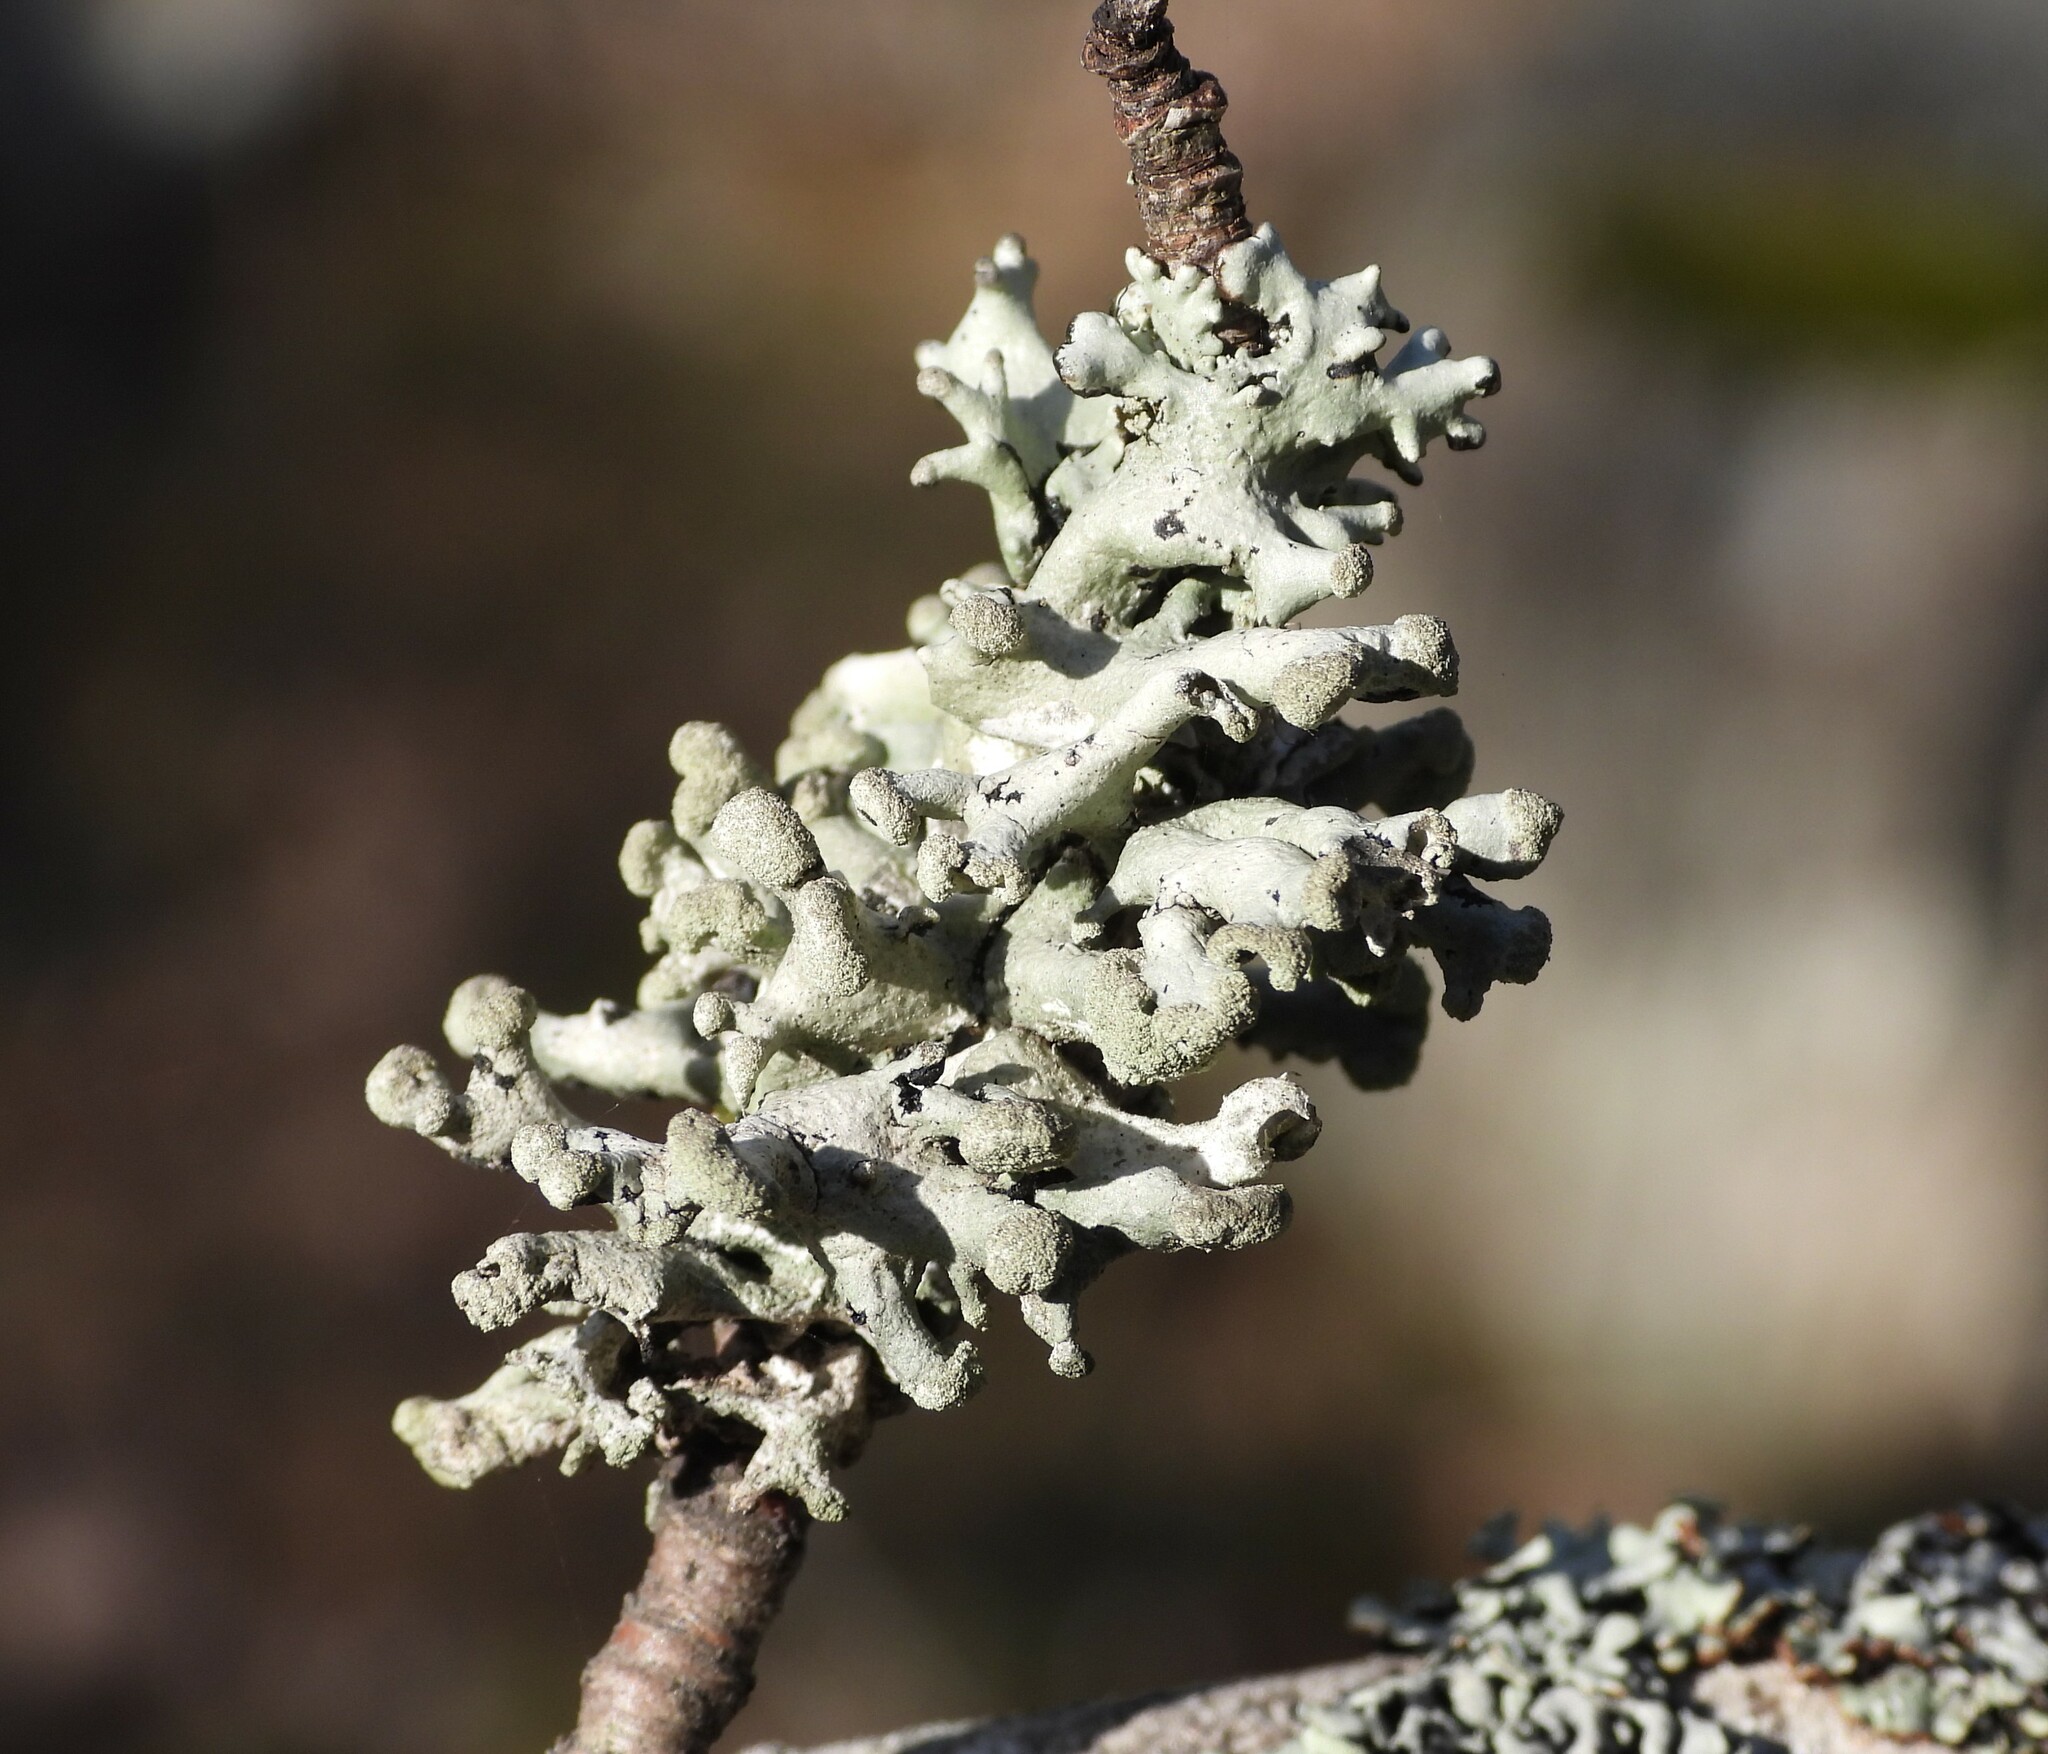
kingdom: Fungi
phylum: Ascomycota
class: Lecanoromycetes
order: Lecanorales
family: Parmeliaceae
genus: Hypogymnia
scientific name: Hypogymnia tubulosa
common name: Powder-headed tube lichen
